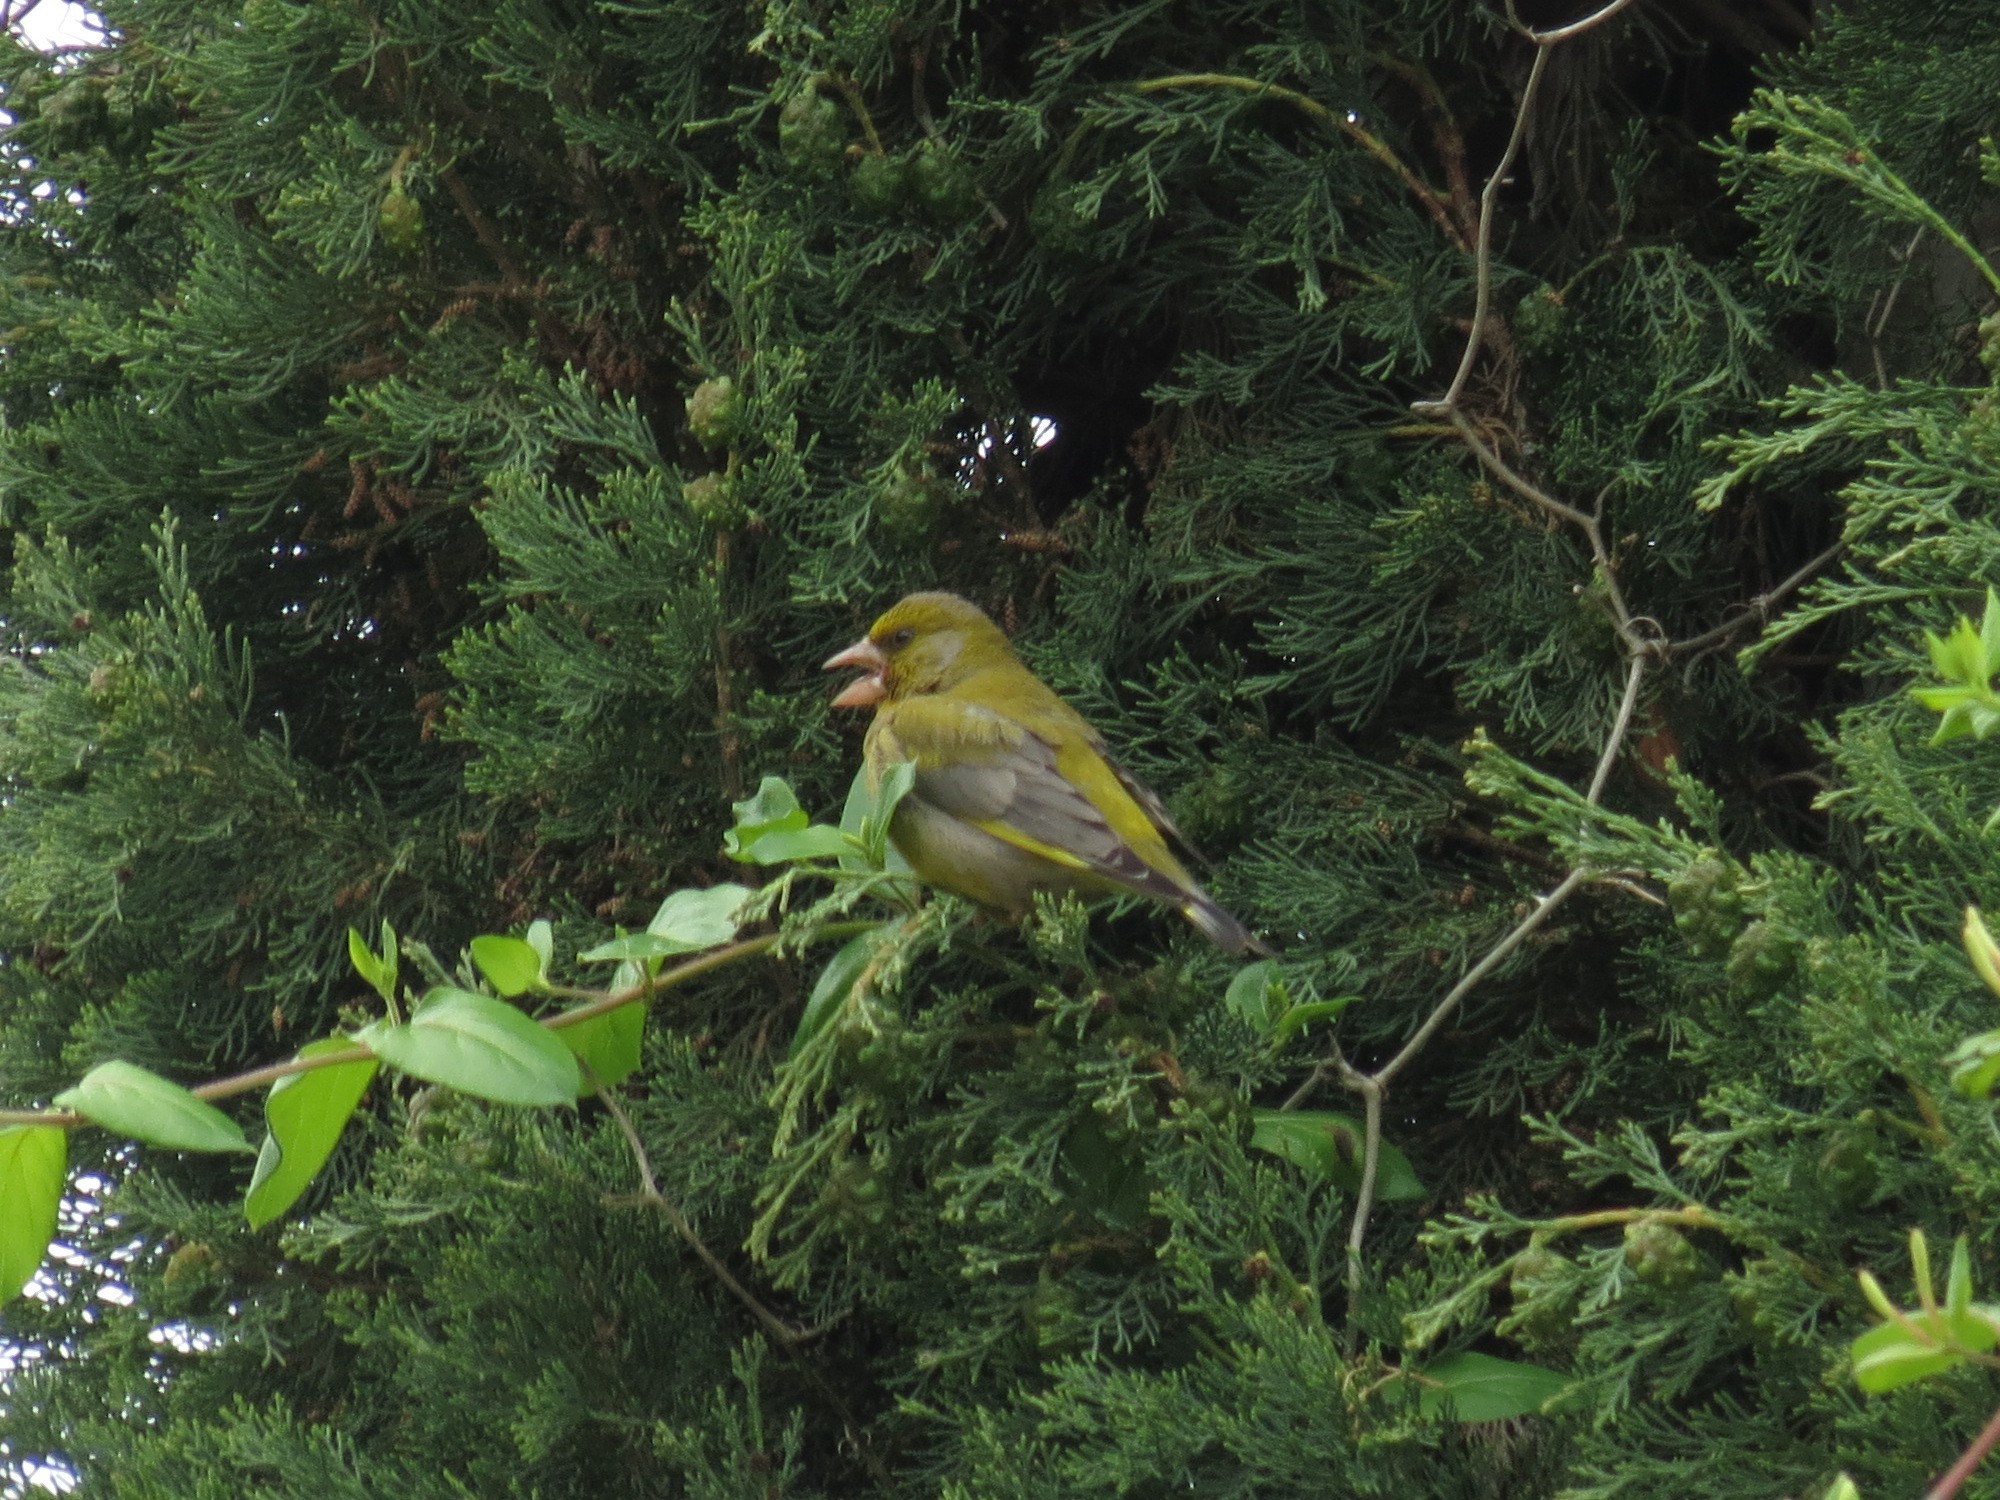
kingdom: Plantae
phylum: Tracheophyta
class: Liliopsida
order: Poales
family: Poaceae
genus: Chloris
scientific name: Chloris chloris
